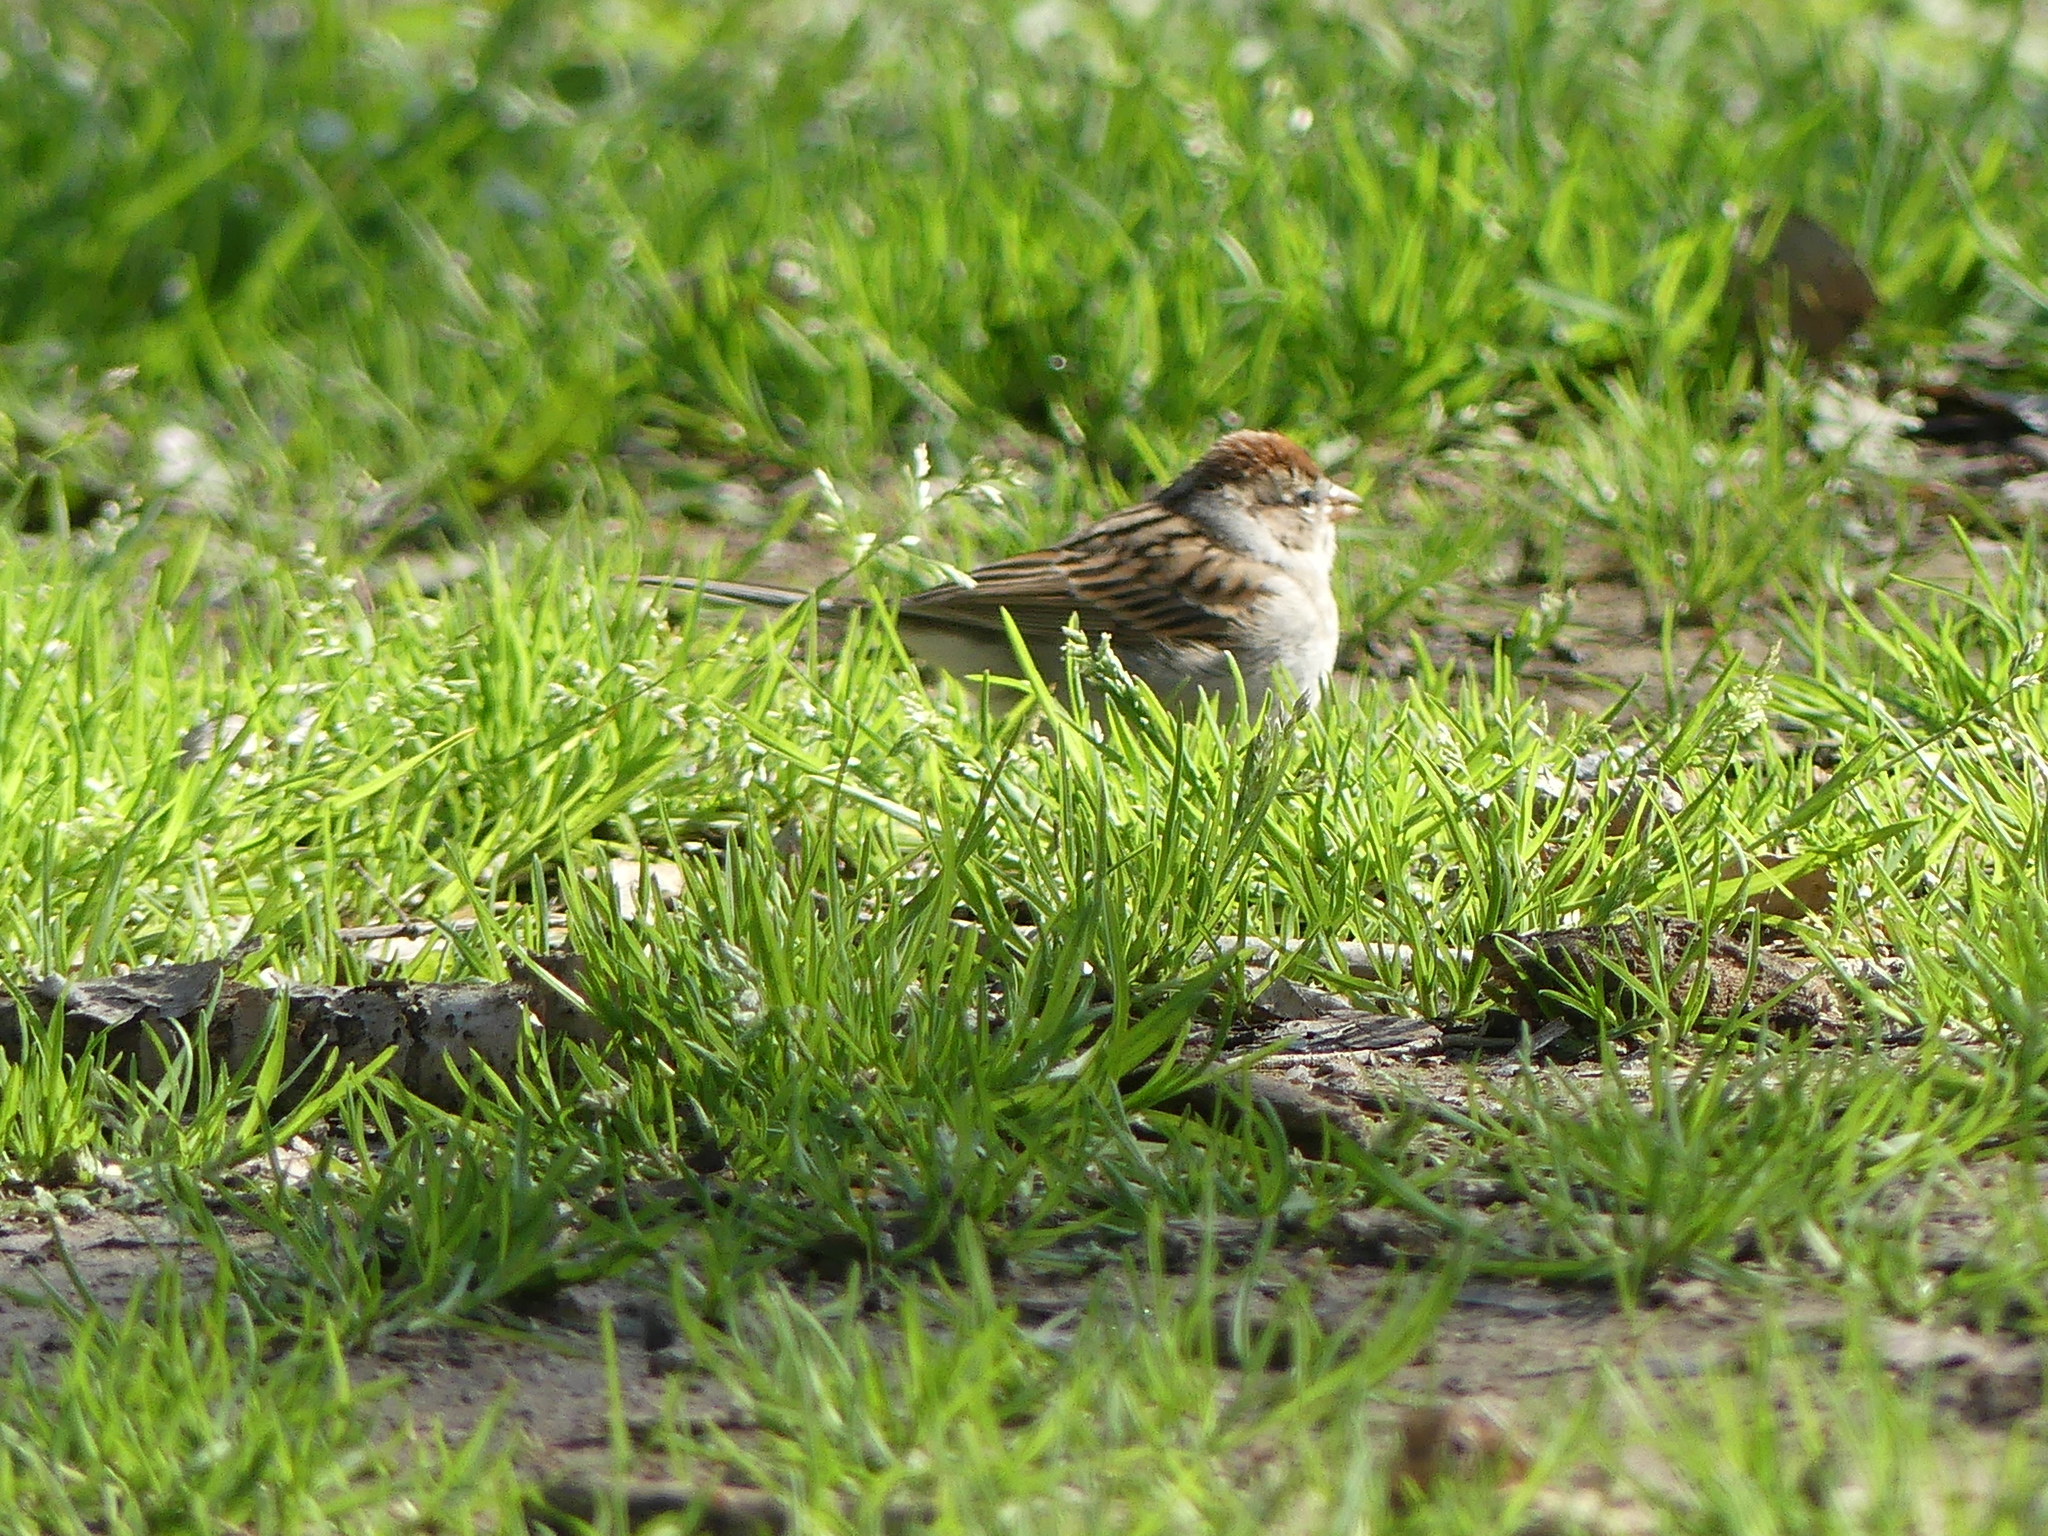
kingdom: Animalia
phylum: Chordata
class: Aves
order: Passeriformes
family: Passerellidae
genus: Spizella
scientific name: Spizella passerina
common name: Chipping sparrow
